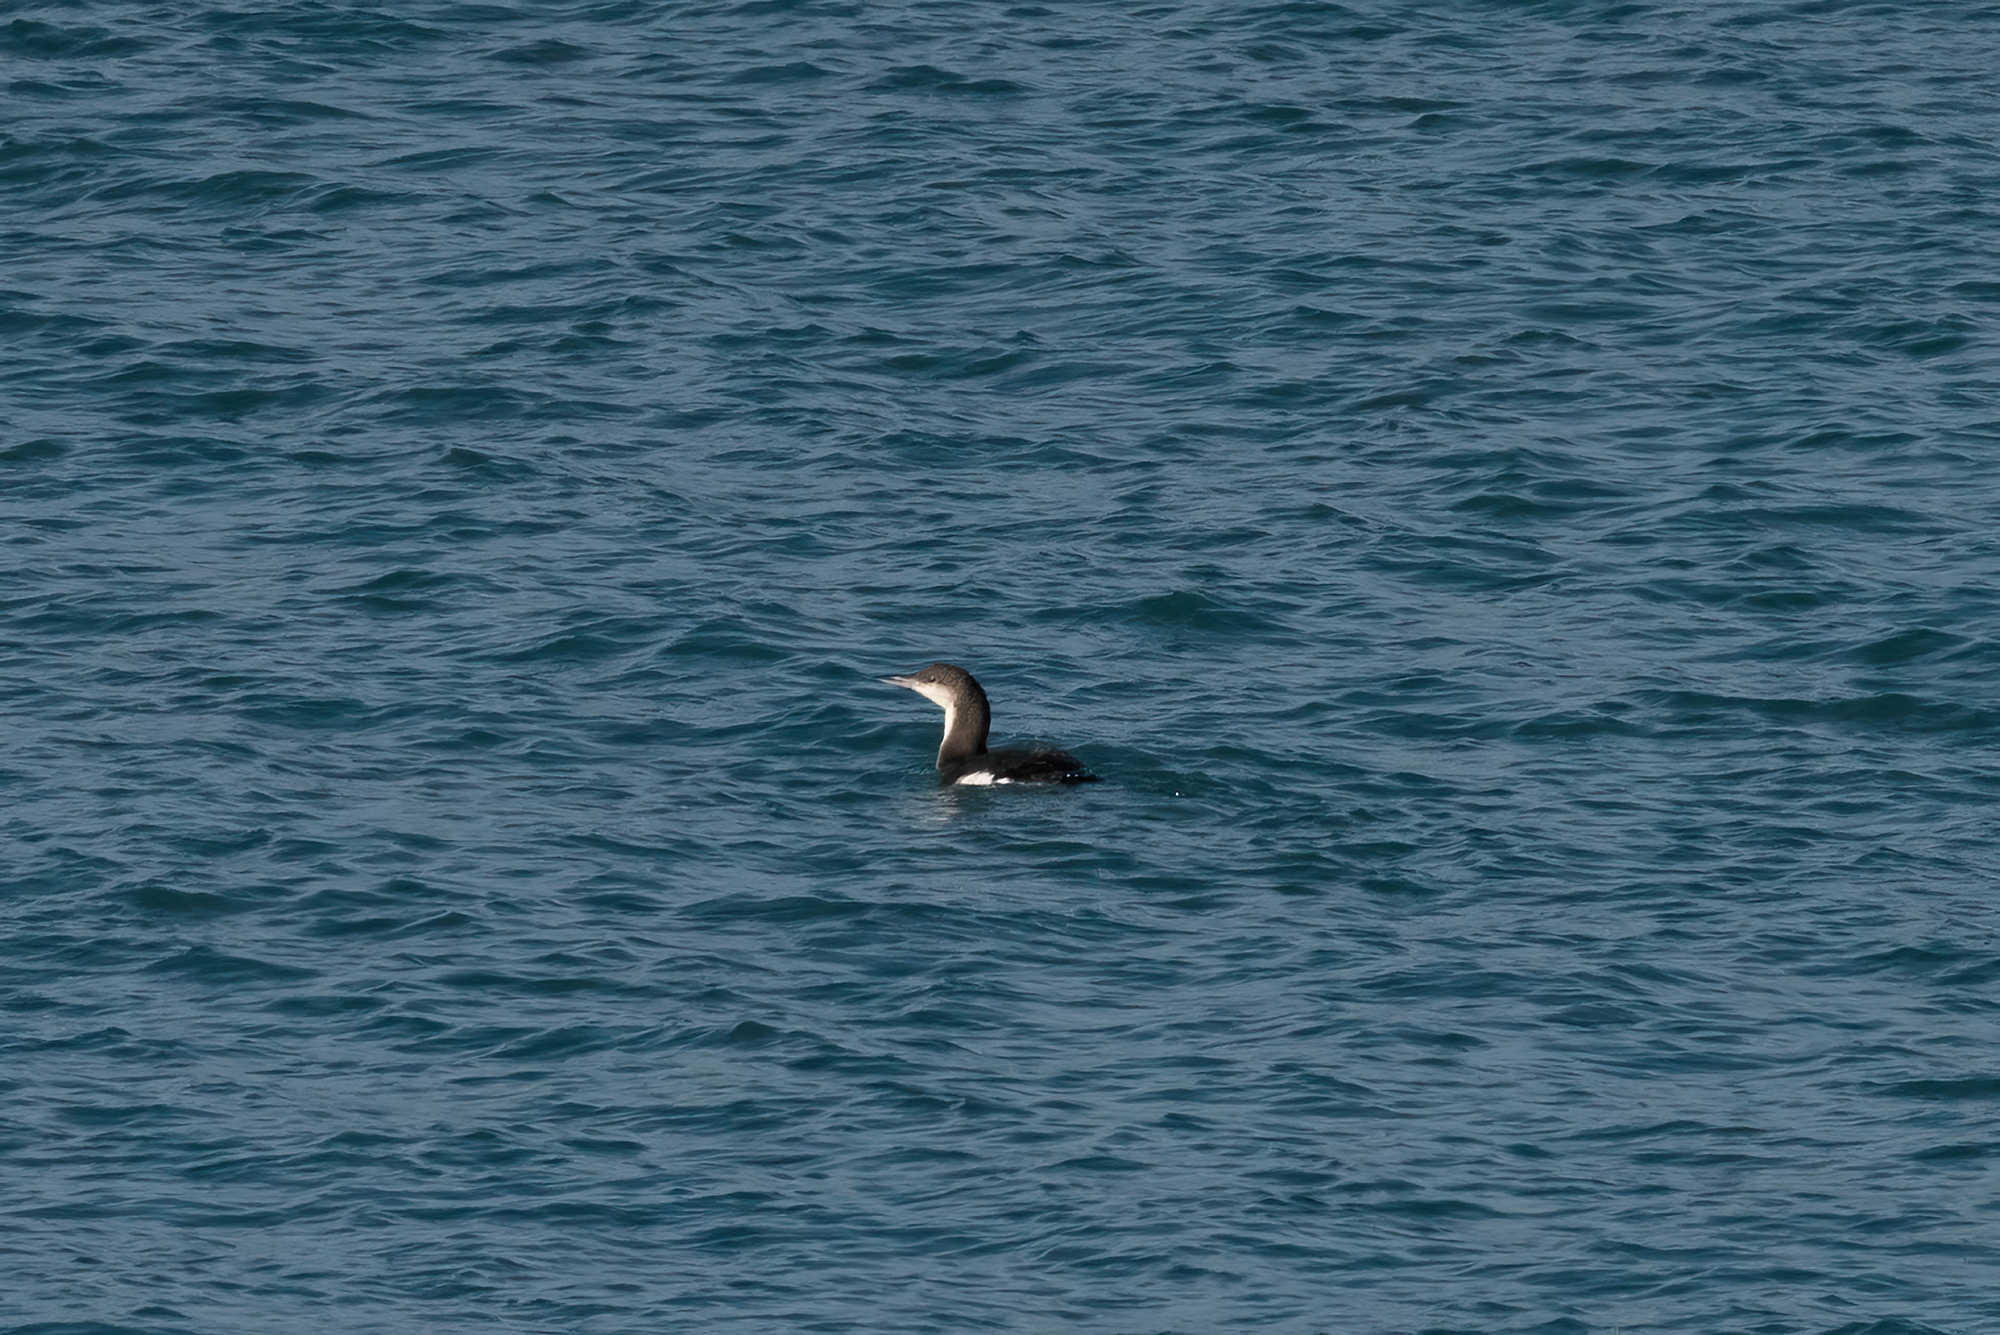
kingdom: Animalia
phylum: Chordata
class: Aves
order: Gaviiformes
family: Gaviidae
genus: Gavia
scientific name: Gavia arctica
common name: Black-throated loon
